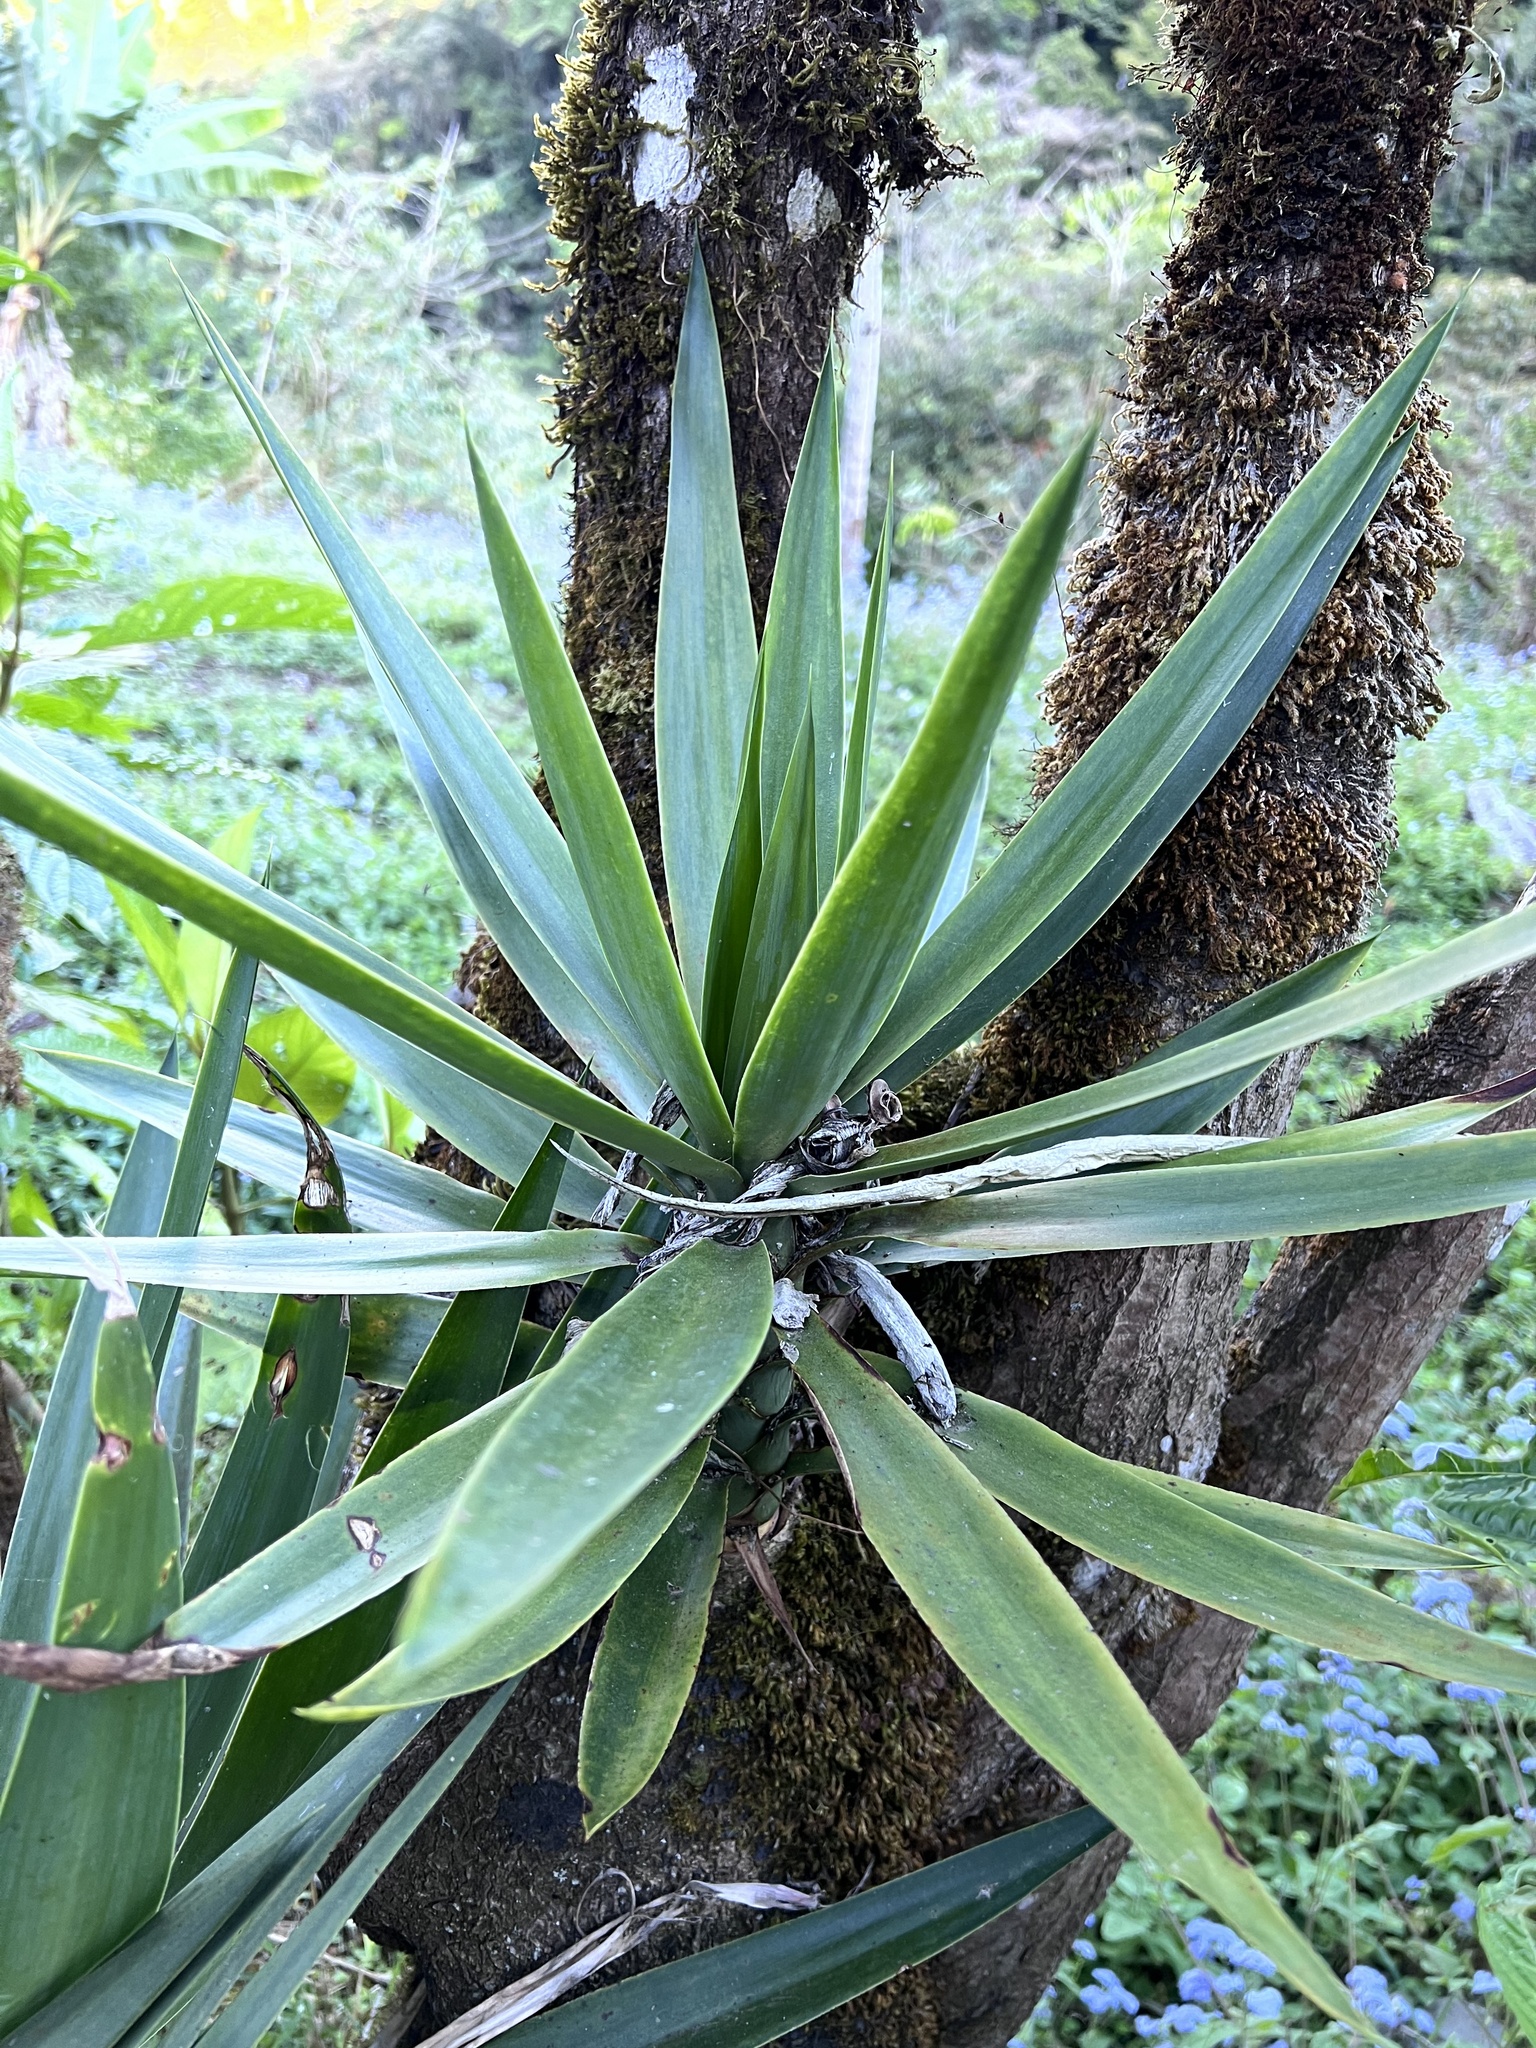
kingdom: Plantae
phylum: Tracheophyta
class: Liliopsida
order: Asparagales
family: Asparagaceae
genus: Yucca
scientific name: Yucca gigantea
